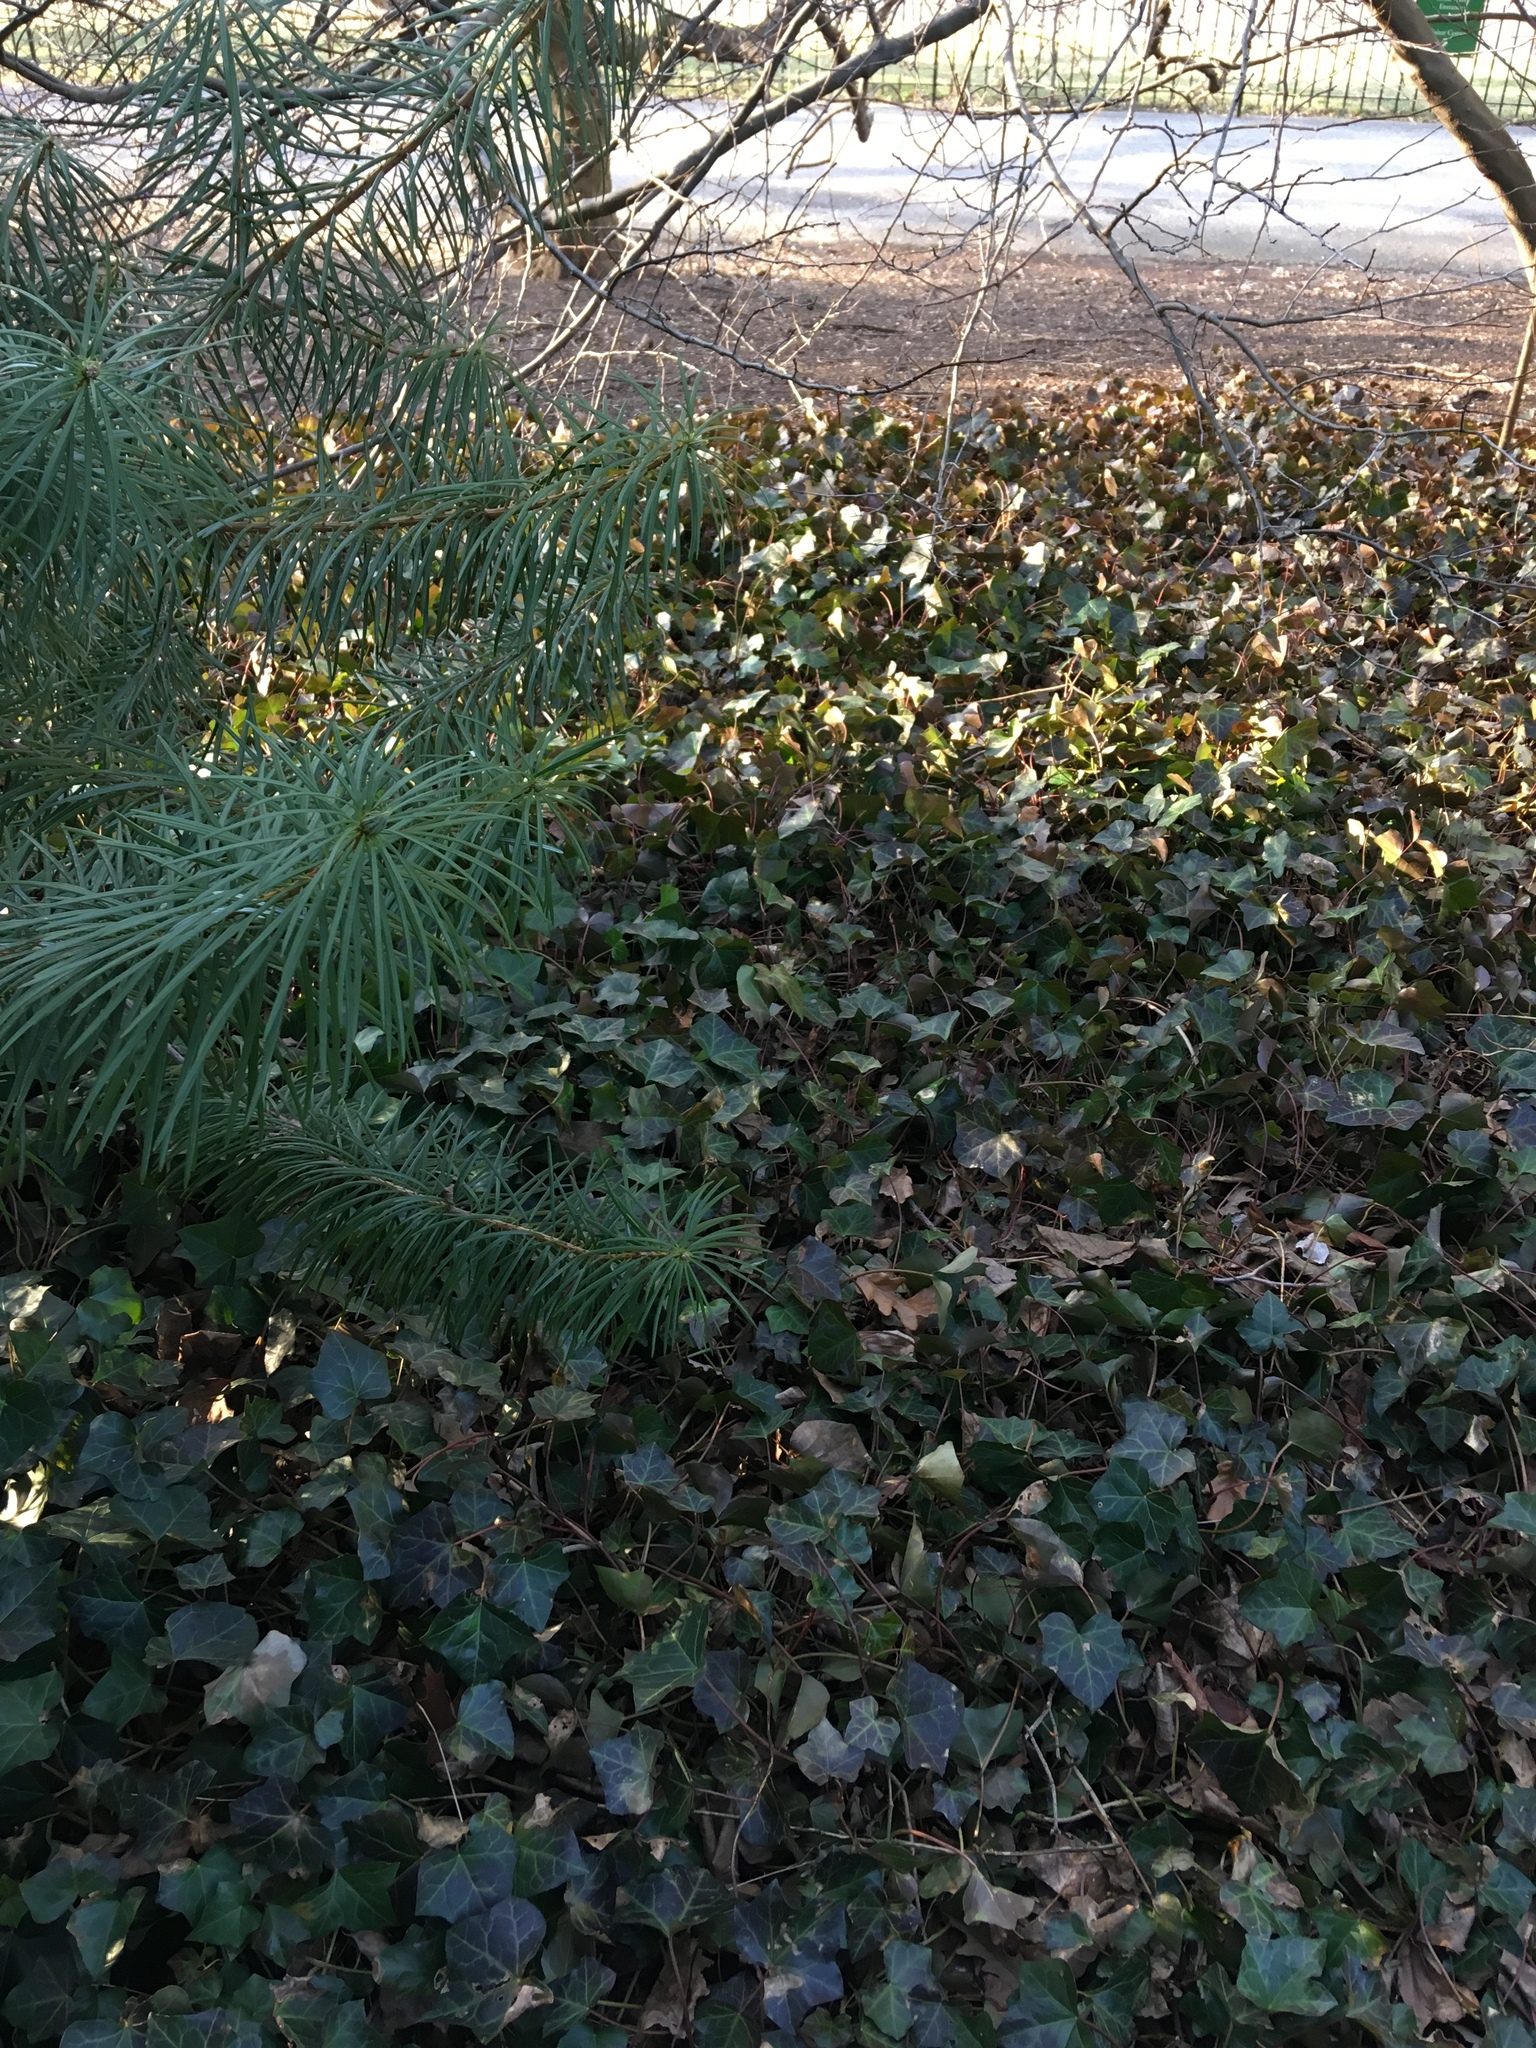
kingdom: Plantae
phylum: Tracheophyta
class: Magnoliopsida
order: Apiales
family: Araliaceae
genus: Hedera
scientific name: Hedera helix
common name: Ivy
